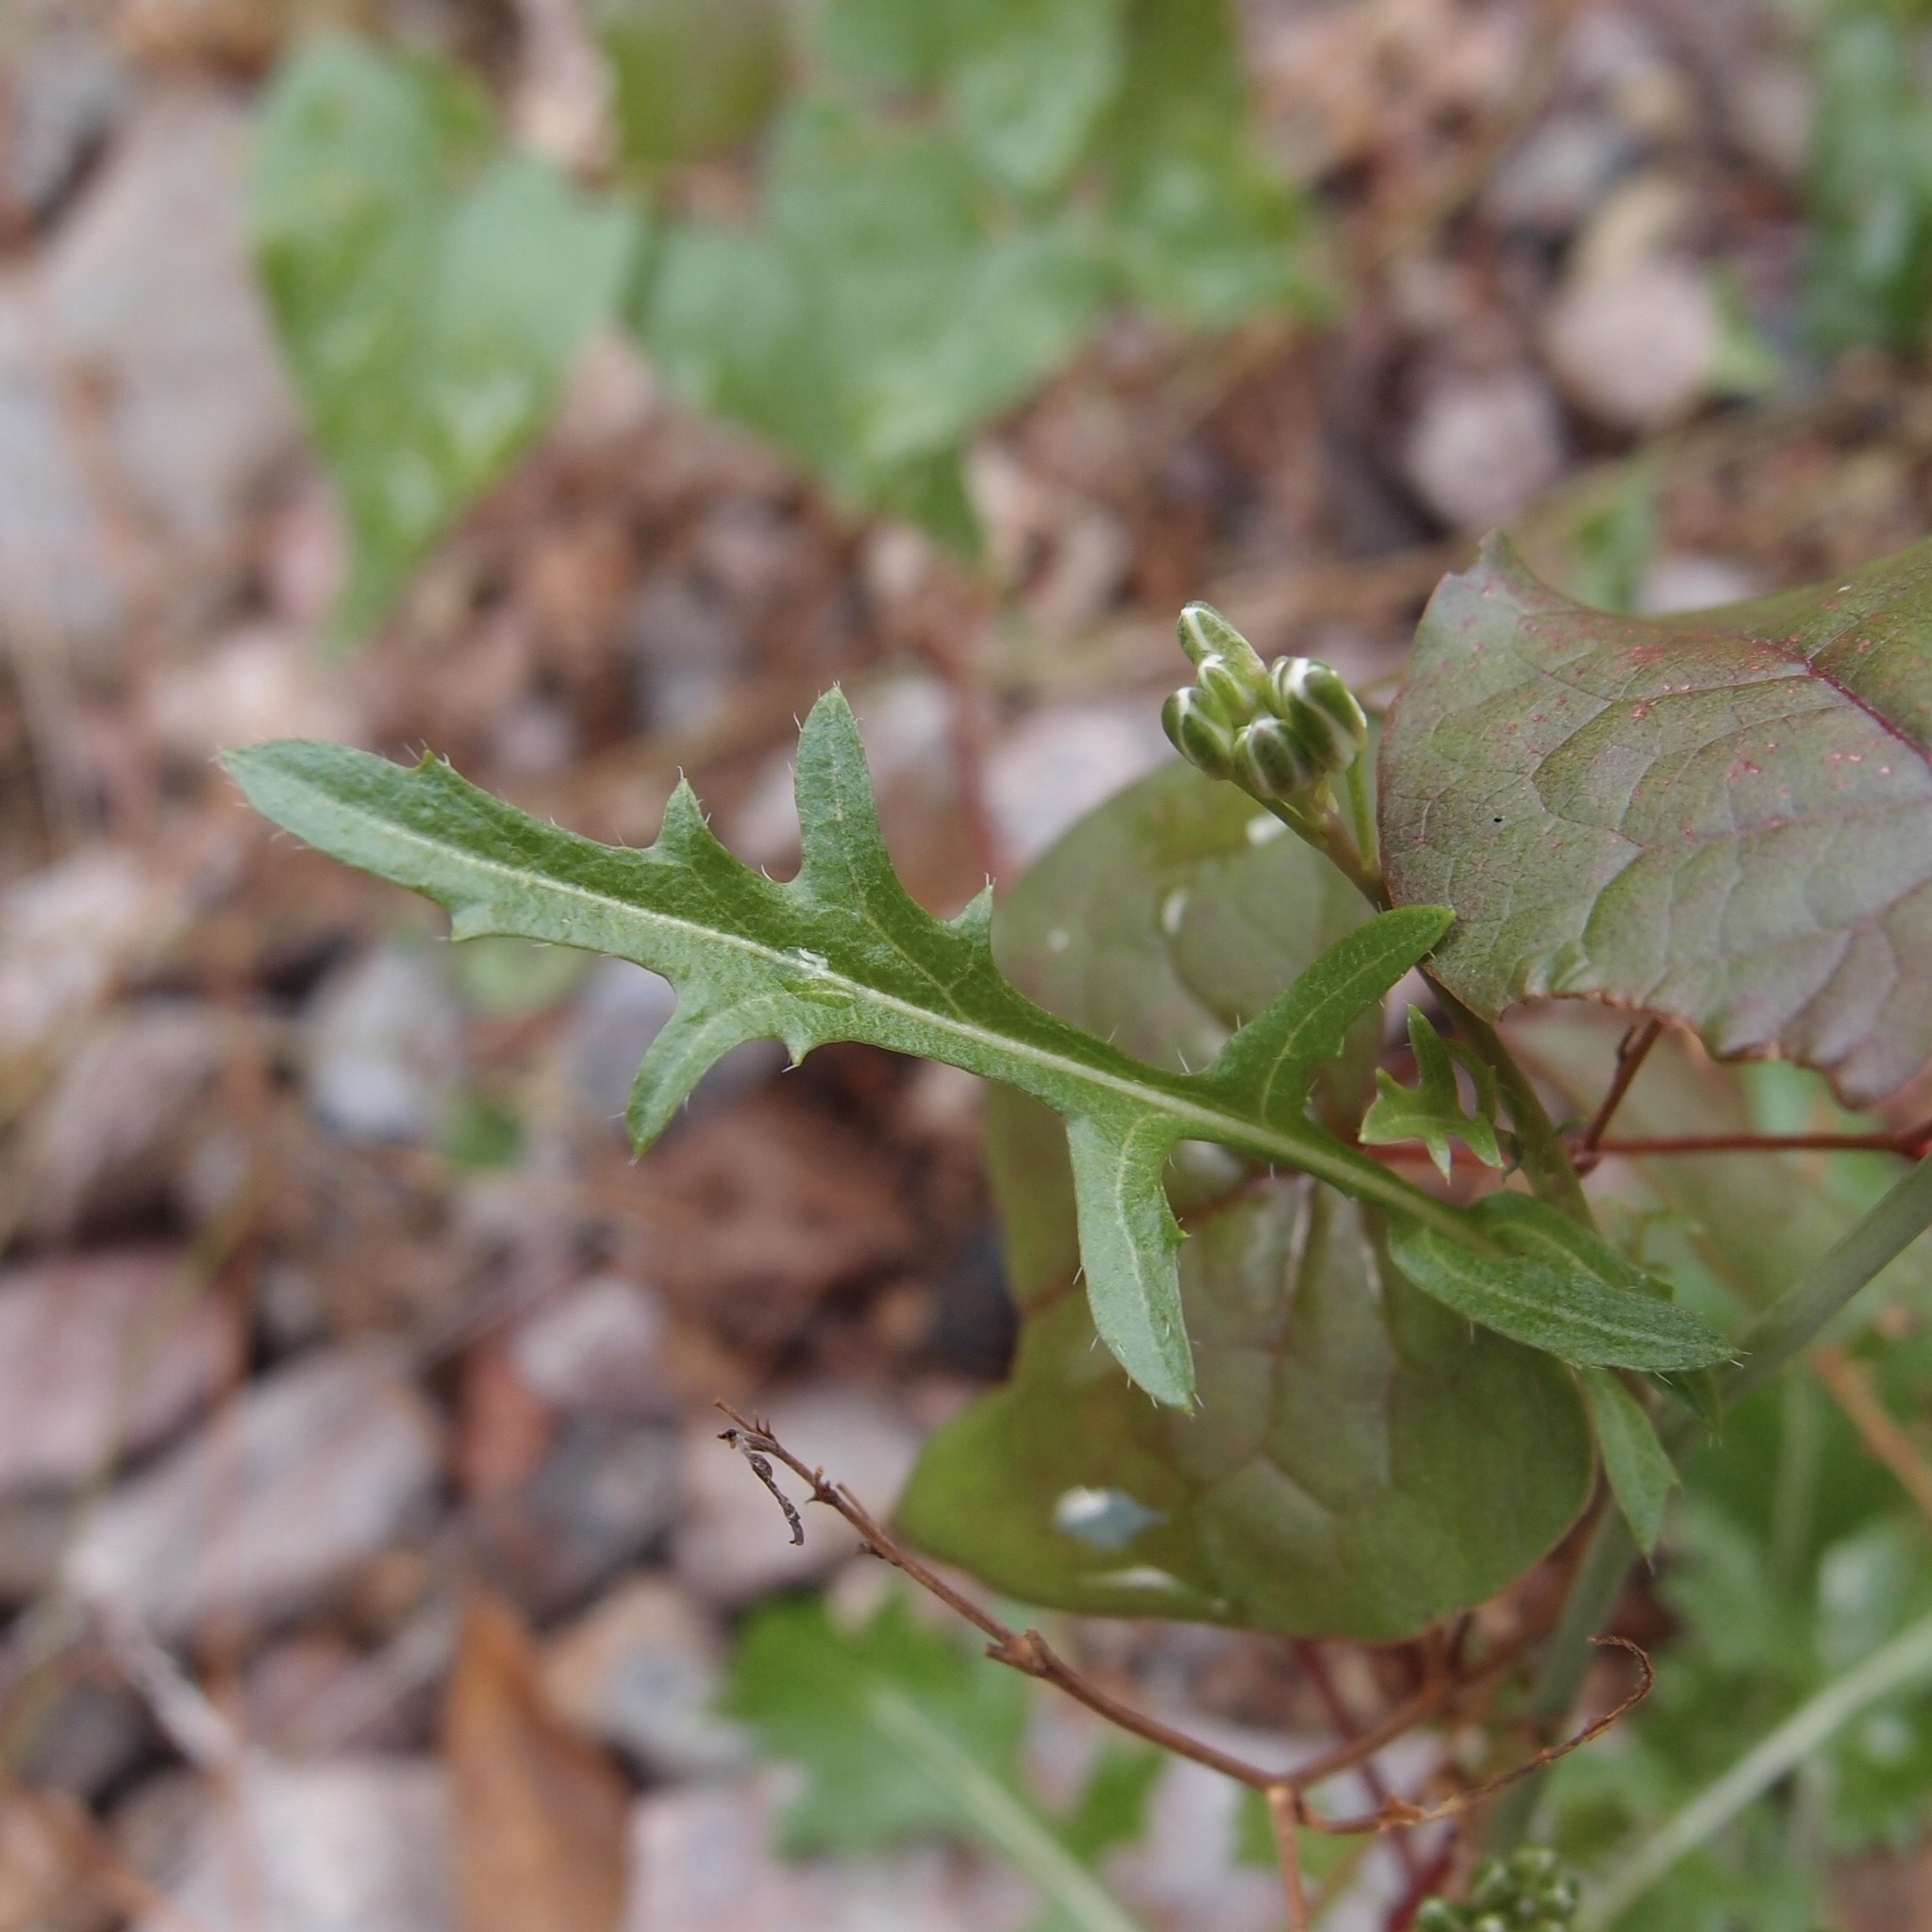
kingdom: Plantae
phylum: Tracheophyta
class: Magnoliopsida
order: Brassicales
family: Brassicaceae
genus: Dryopetalon
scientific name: Dryopetalon runcinatum
